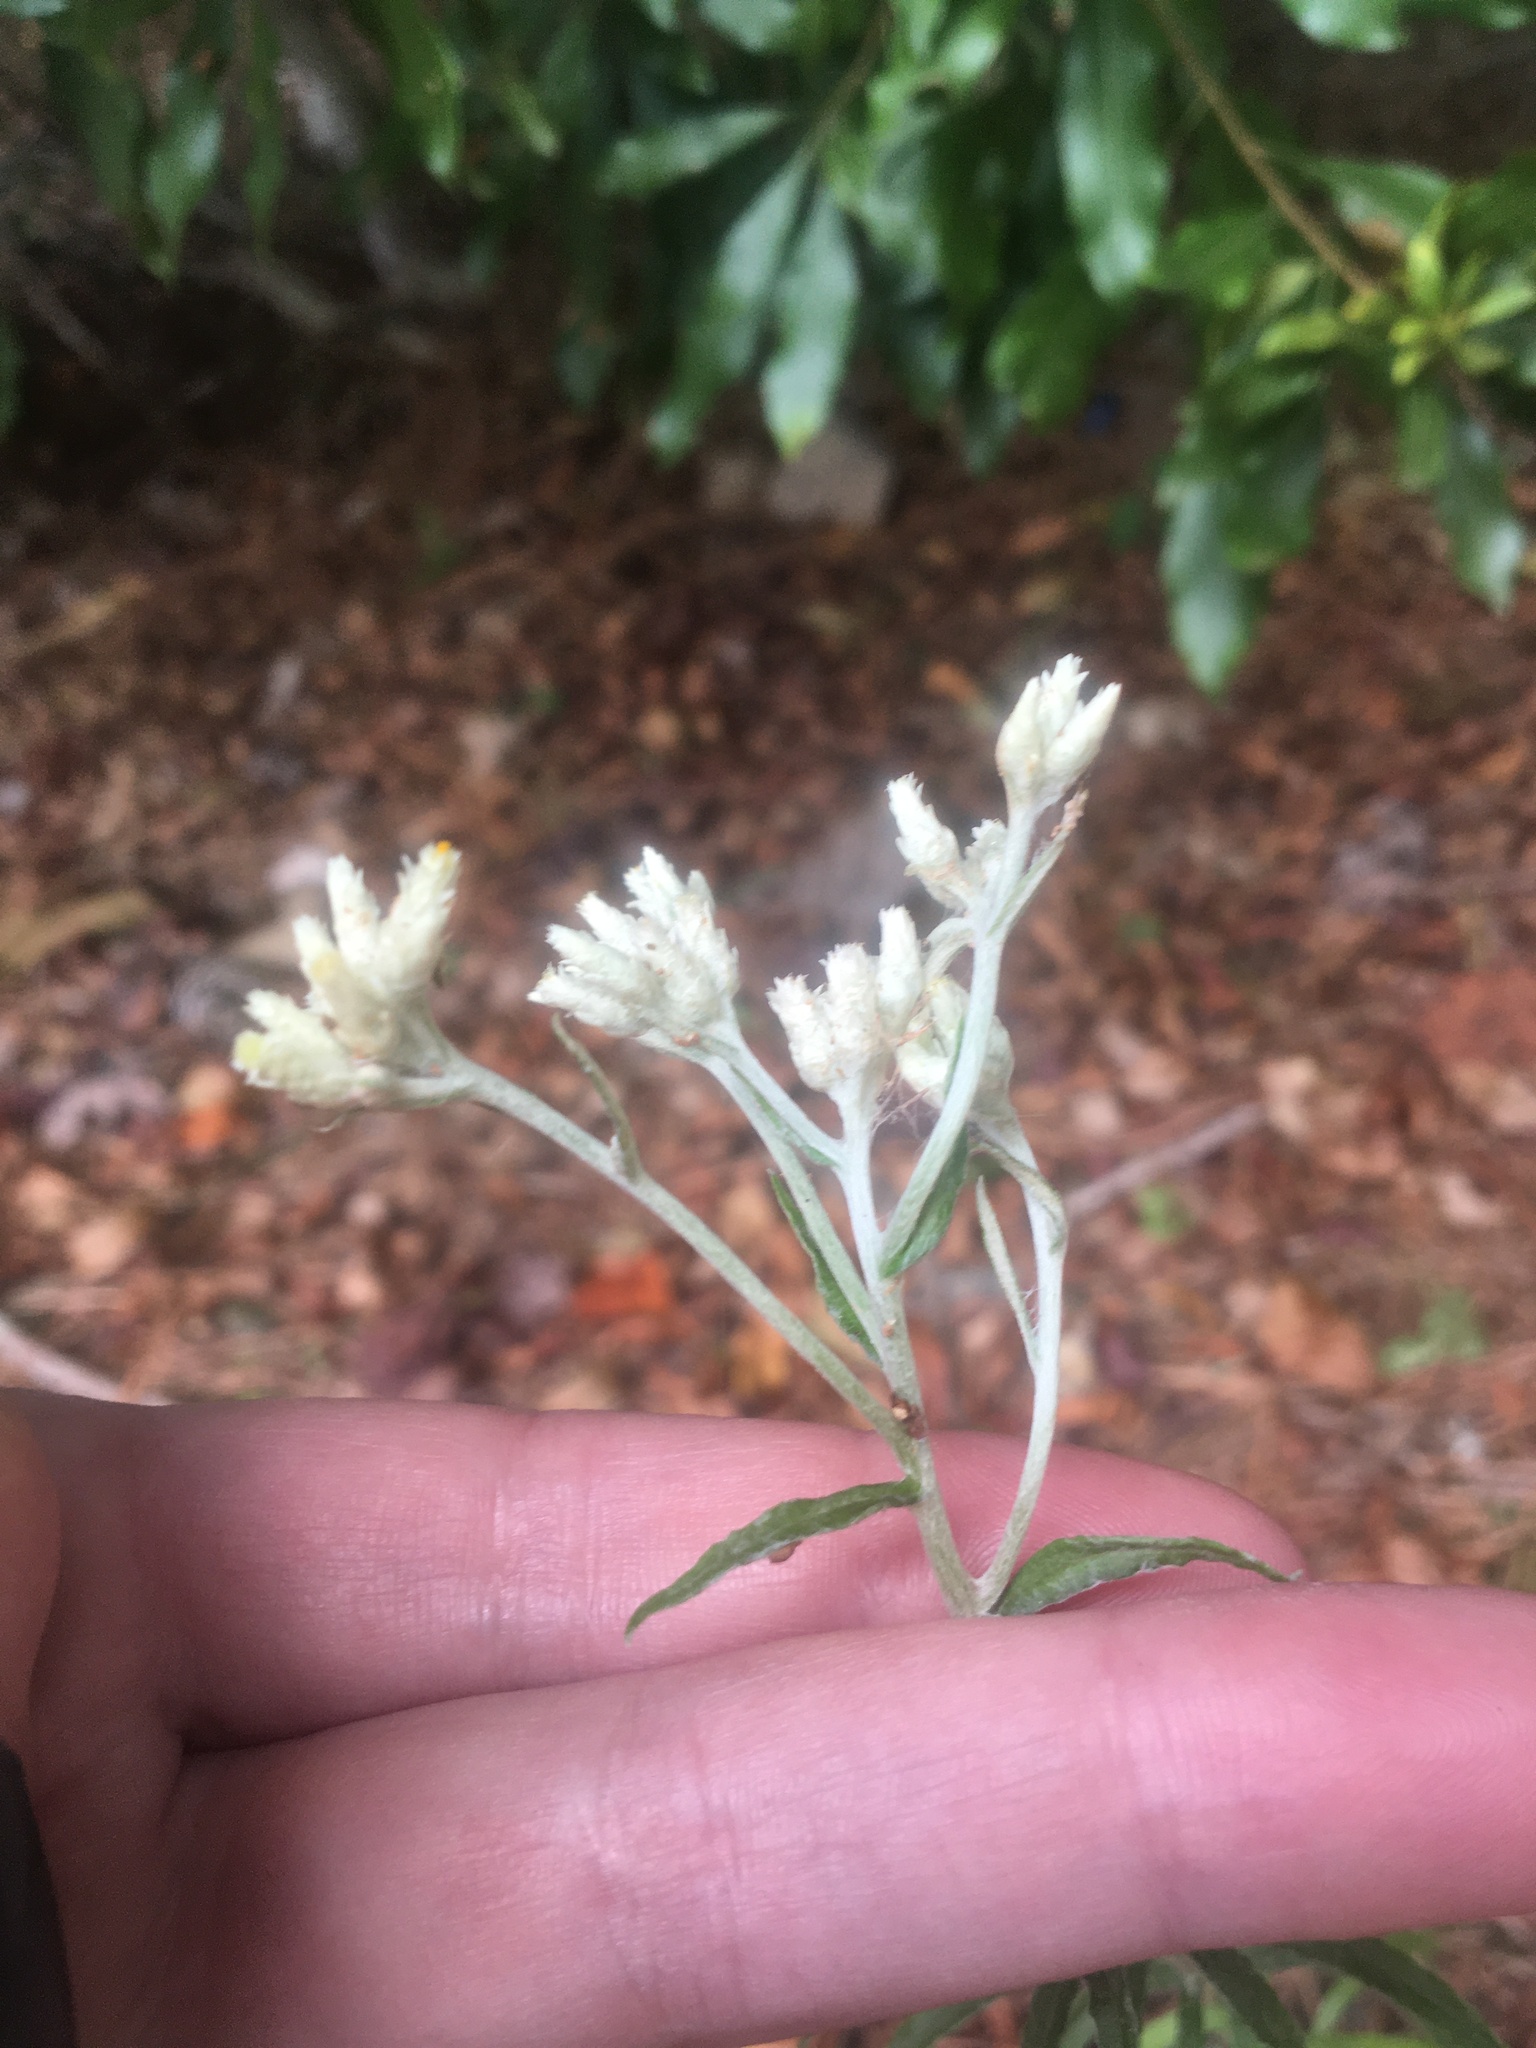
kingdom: Plantae
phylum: Tracheophyta
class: Magnoliopsida
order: Asterales
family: Asteraceae
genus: Pseudognaphalium
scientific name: Pseudognaphalium obtusifolium
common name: Eastern rabbit-tobacco
